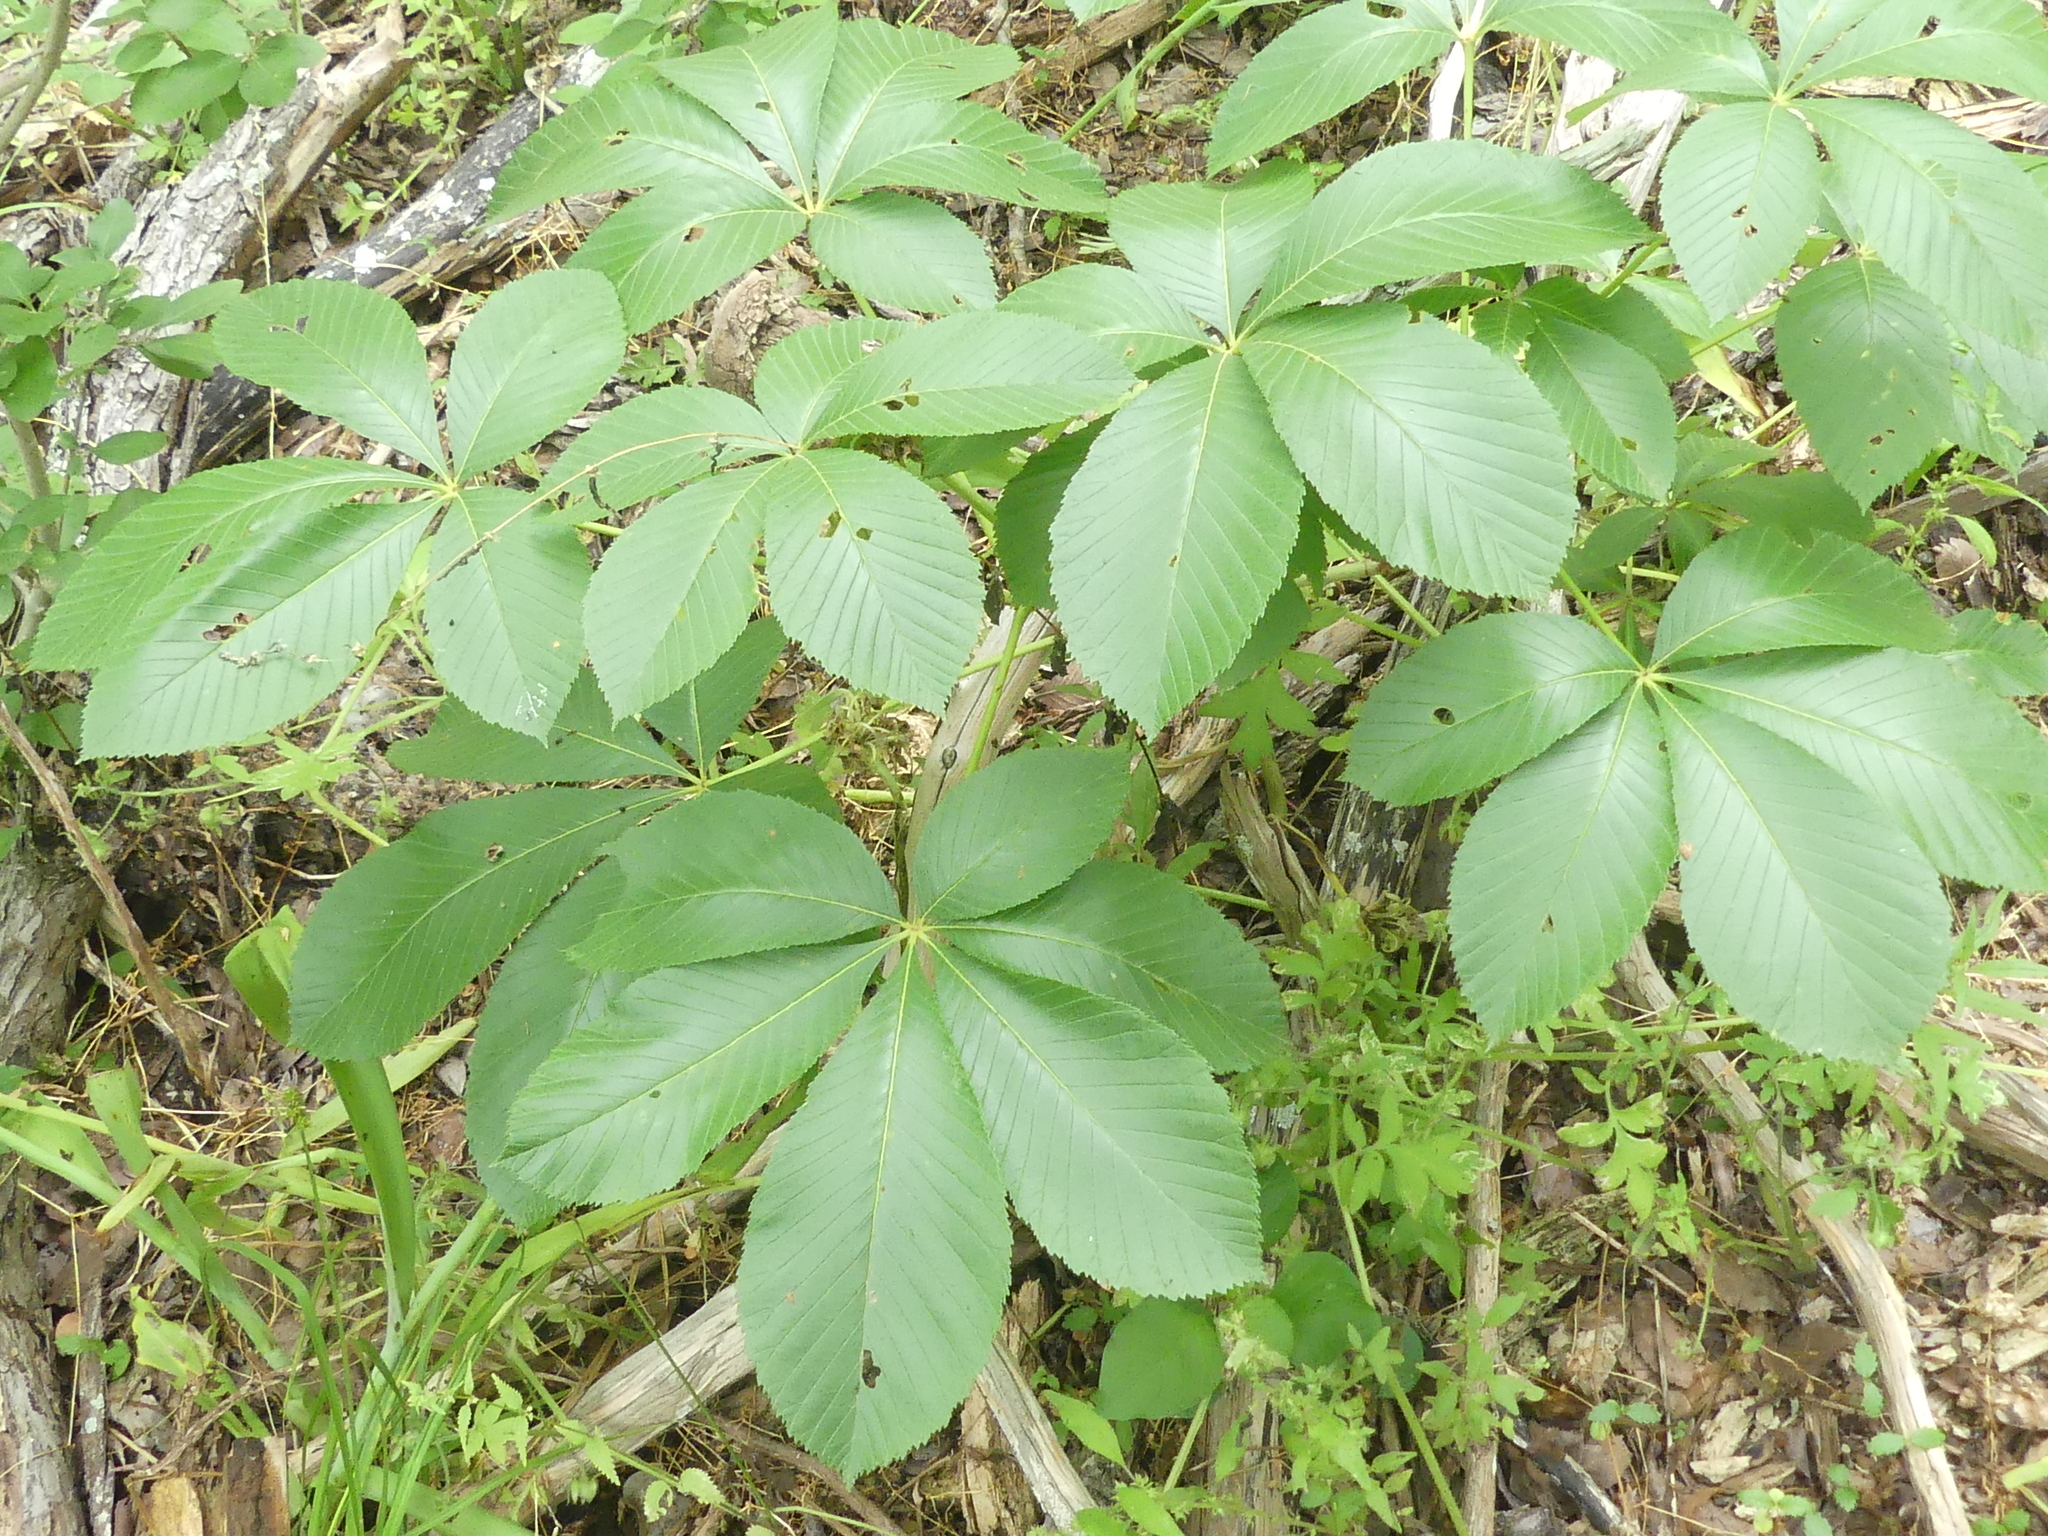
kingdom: Plantae
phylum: Tracheophyta
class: Magnoliopsida
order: Sapindales
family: Sapindaceae
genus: Aesculus
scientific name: Aesculus pavia
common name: Red buckeye
